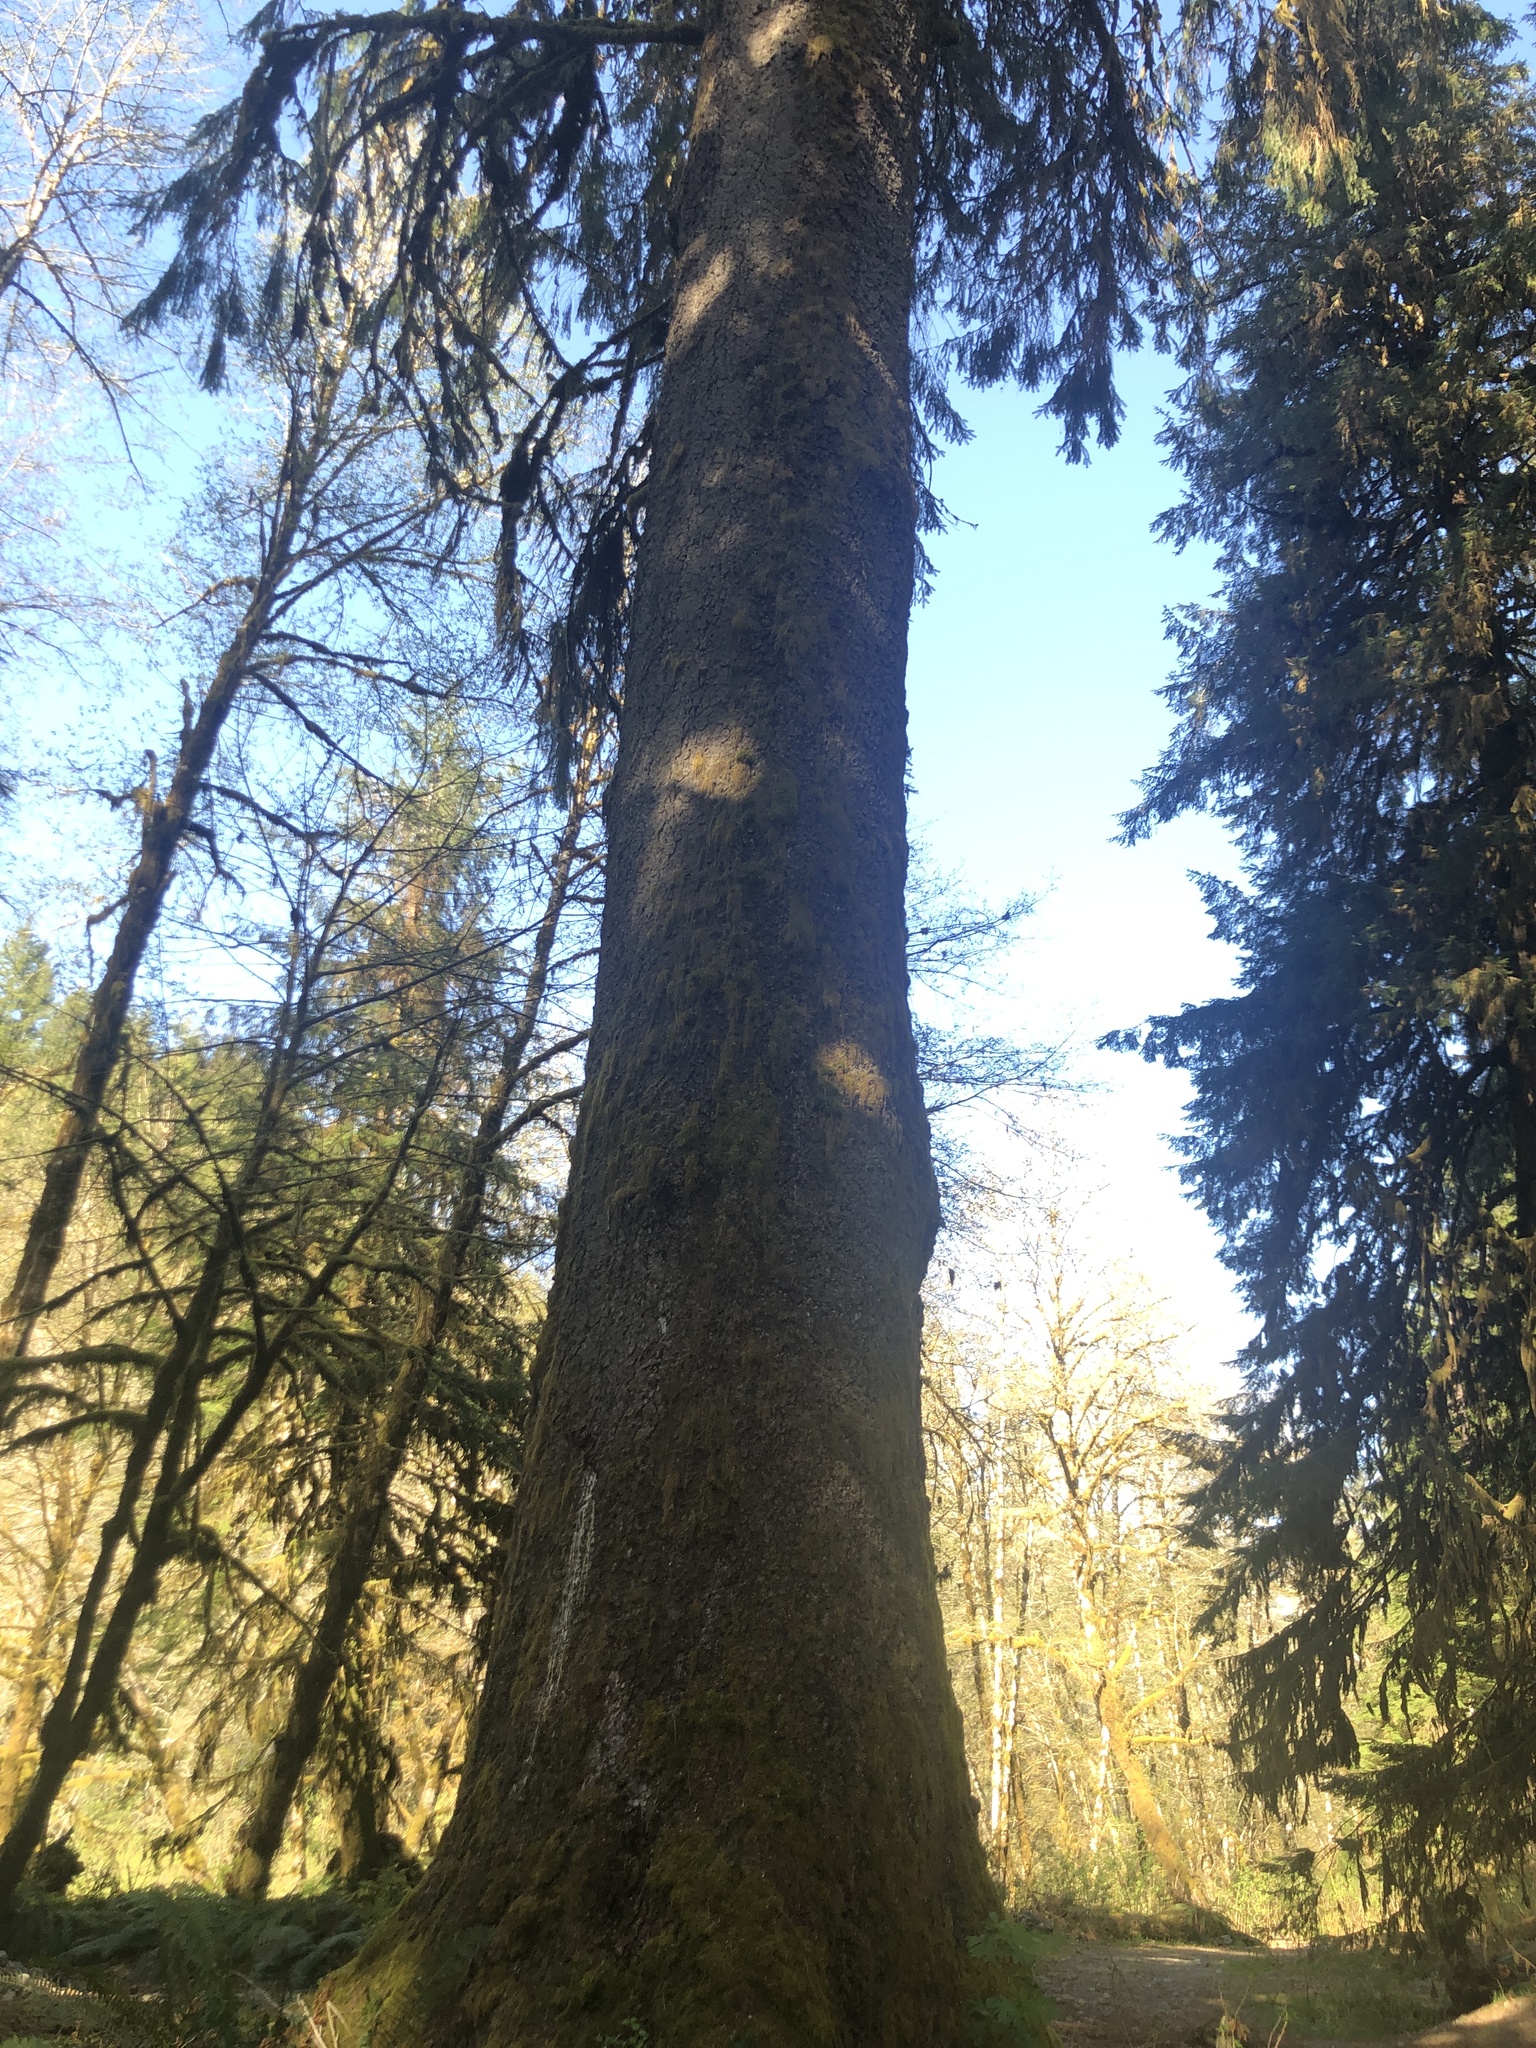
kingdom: Plantae
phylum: Tracheophyta
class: Pinopsida
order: Pinales
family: Pinaceae
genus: Picea
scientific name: Picea sitchensis
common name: Sitka spruce
